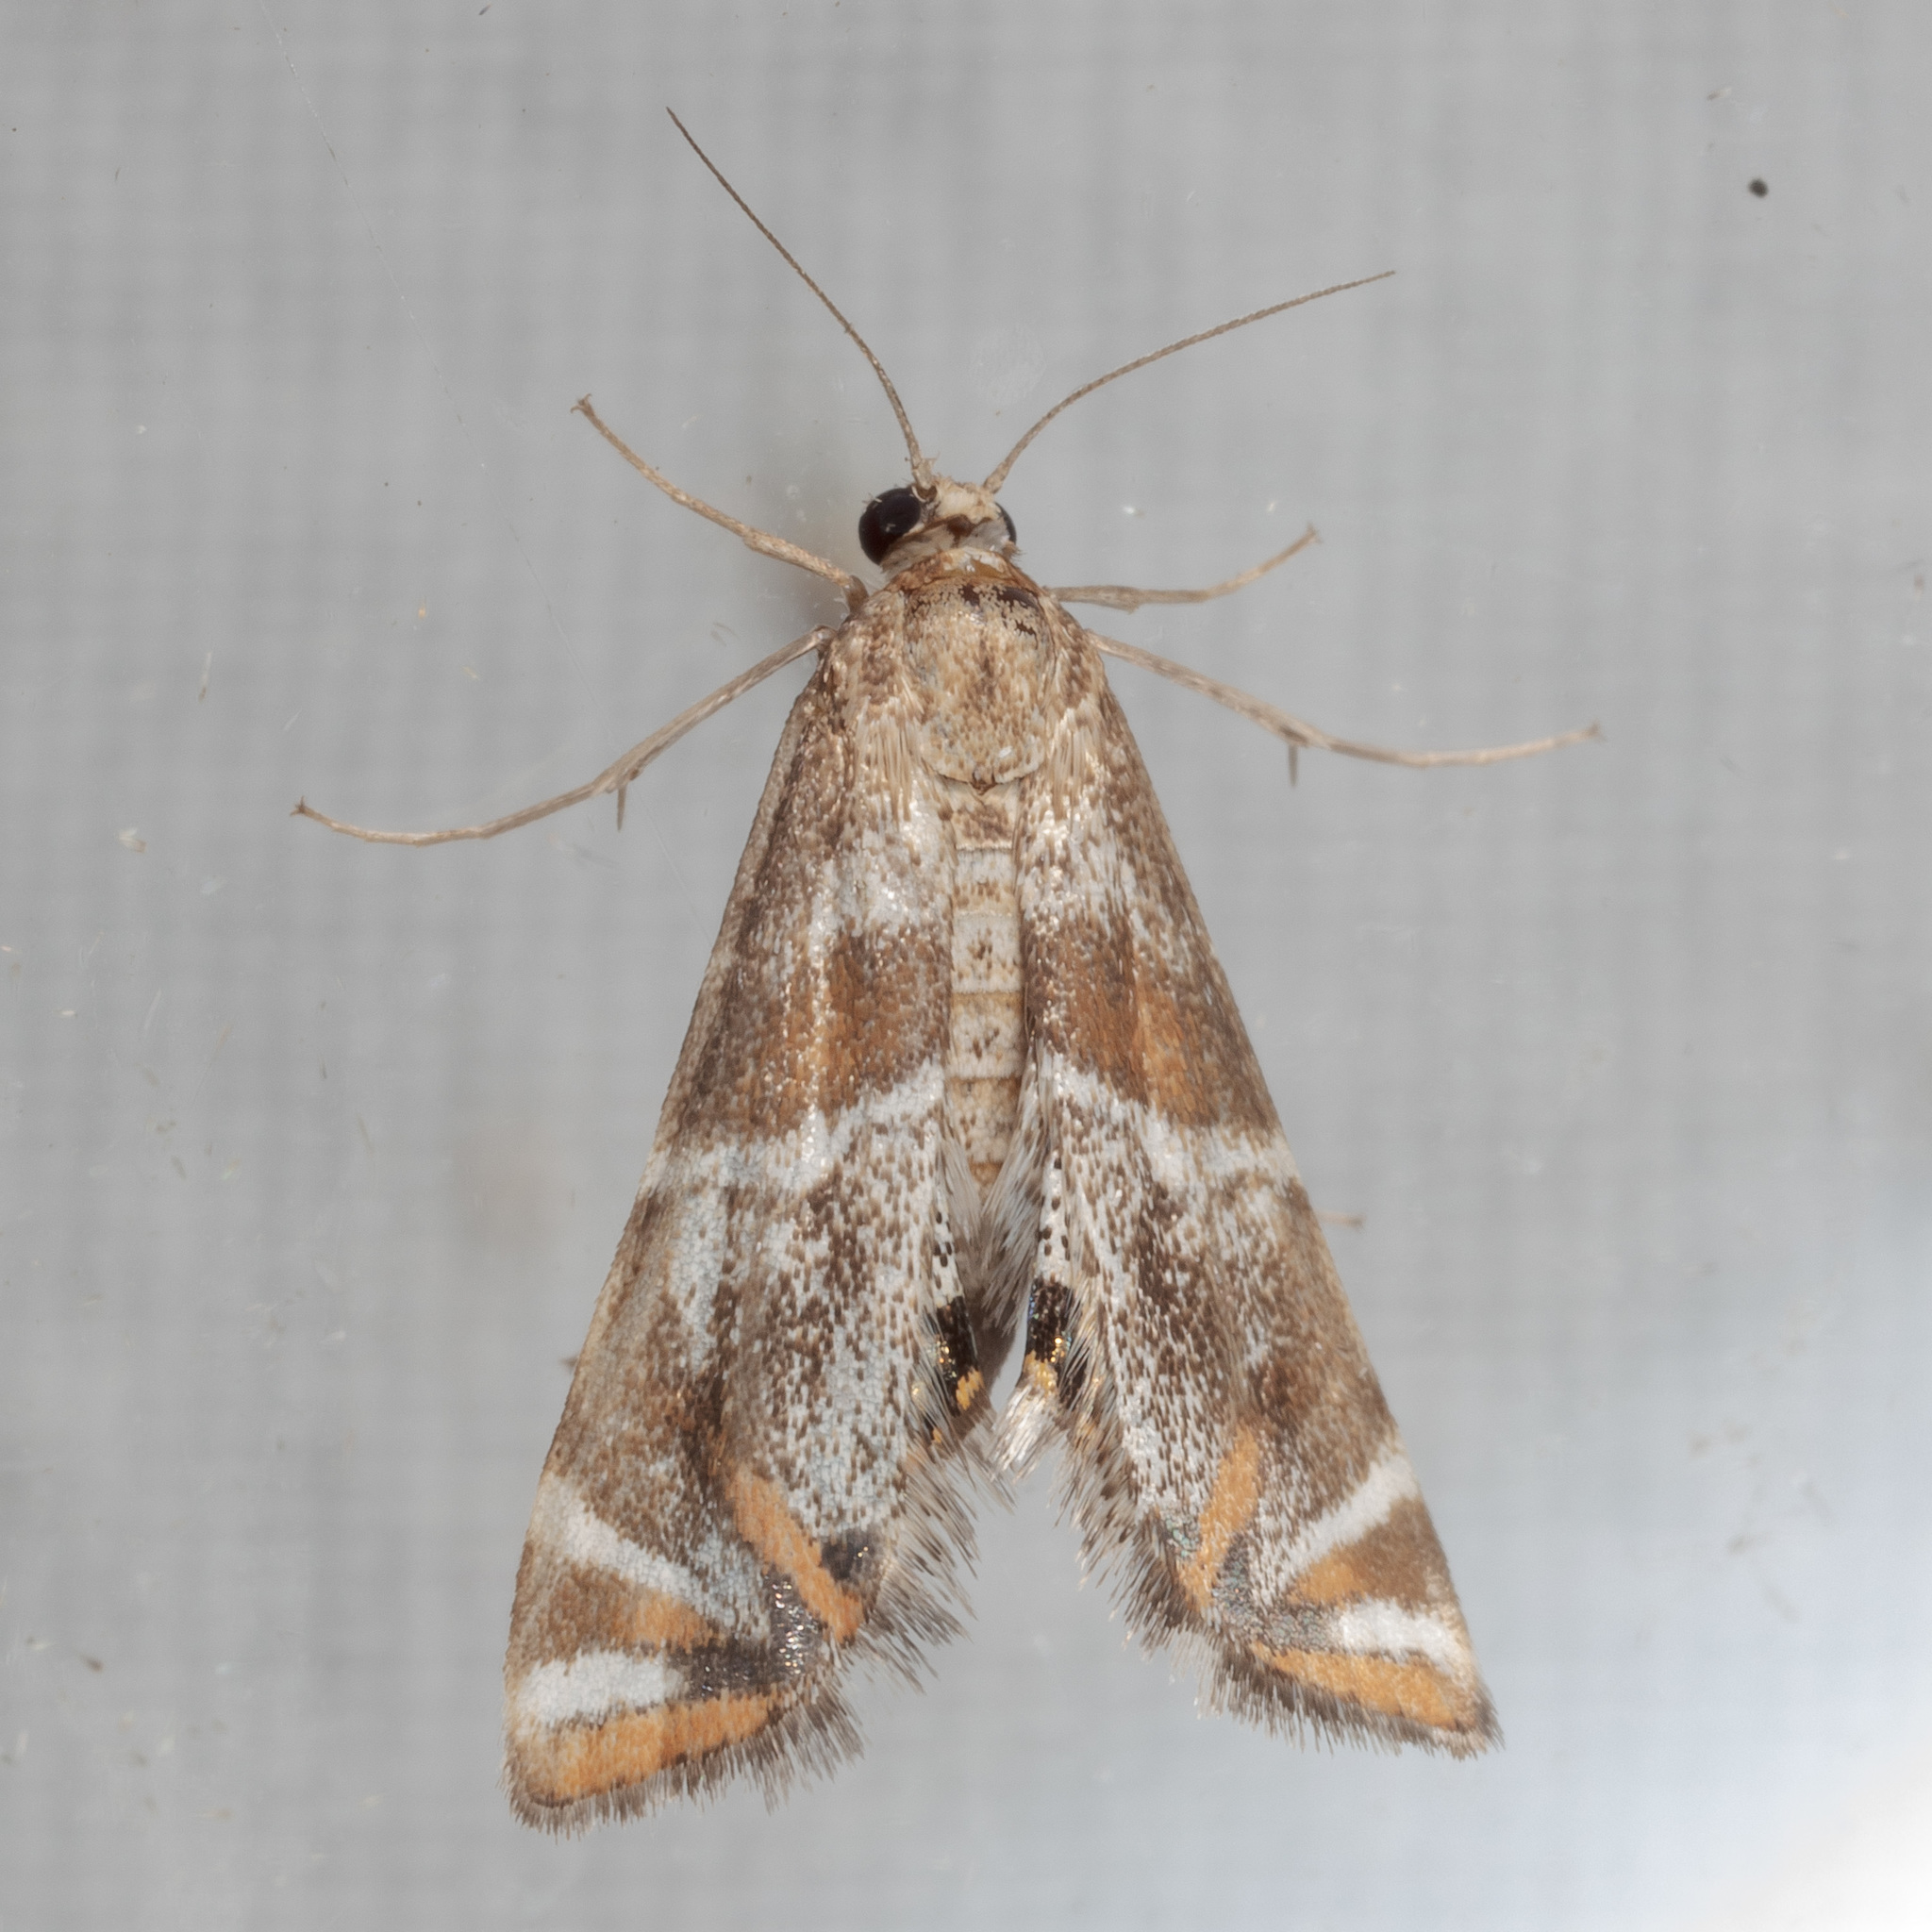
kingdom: Animalia
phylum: Arthropoda
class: Insecta
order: Lepidoptera
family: Crambidae
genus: Petrophila
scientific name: Petrophila jaliscalis
